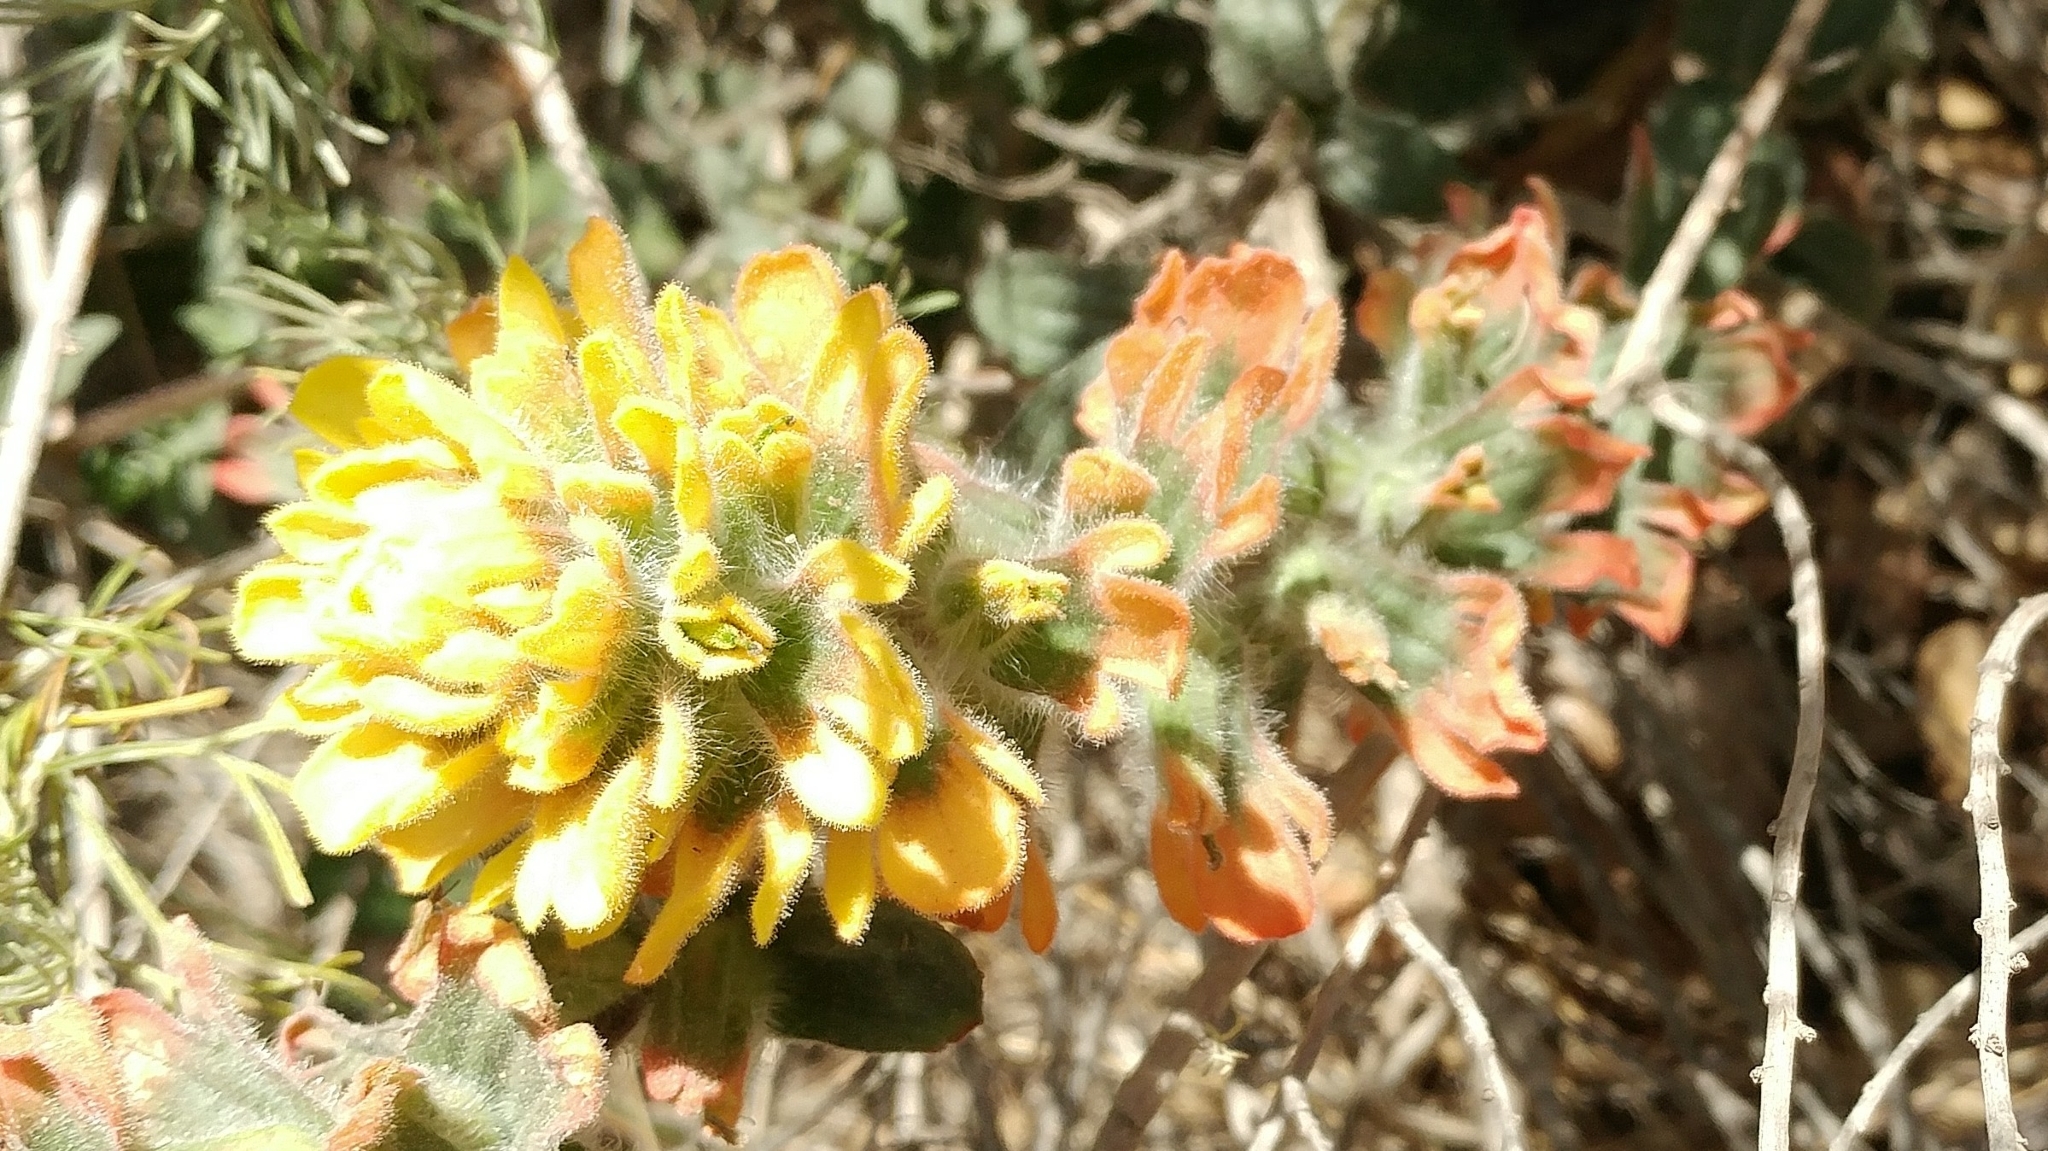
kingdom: Plantae
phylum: Tracheophyta
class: Magnoliopsida
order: Lamiales
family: Orobanchaceae
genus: Castilleja
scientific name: Castilleja affinis
